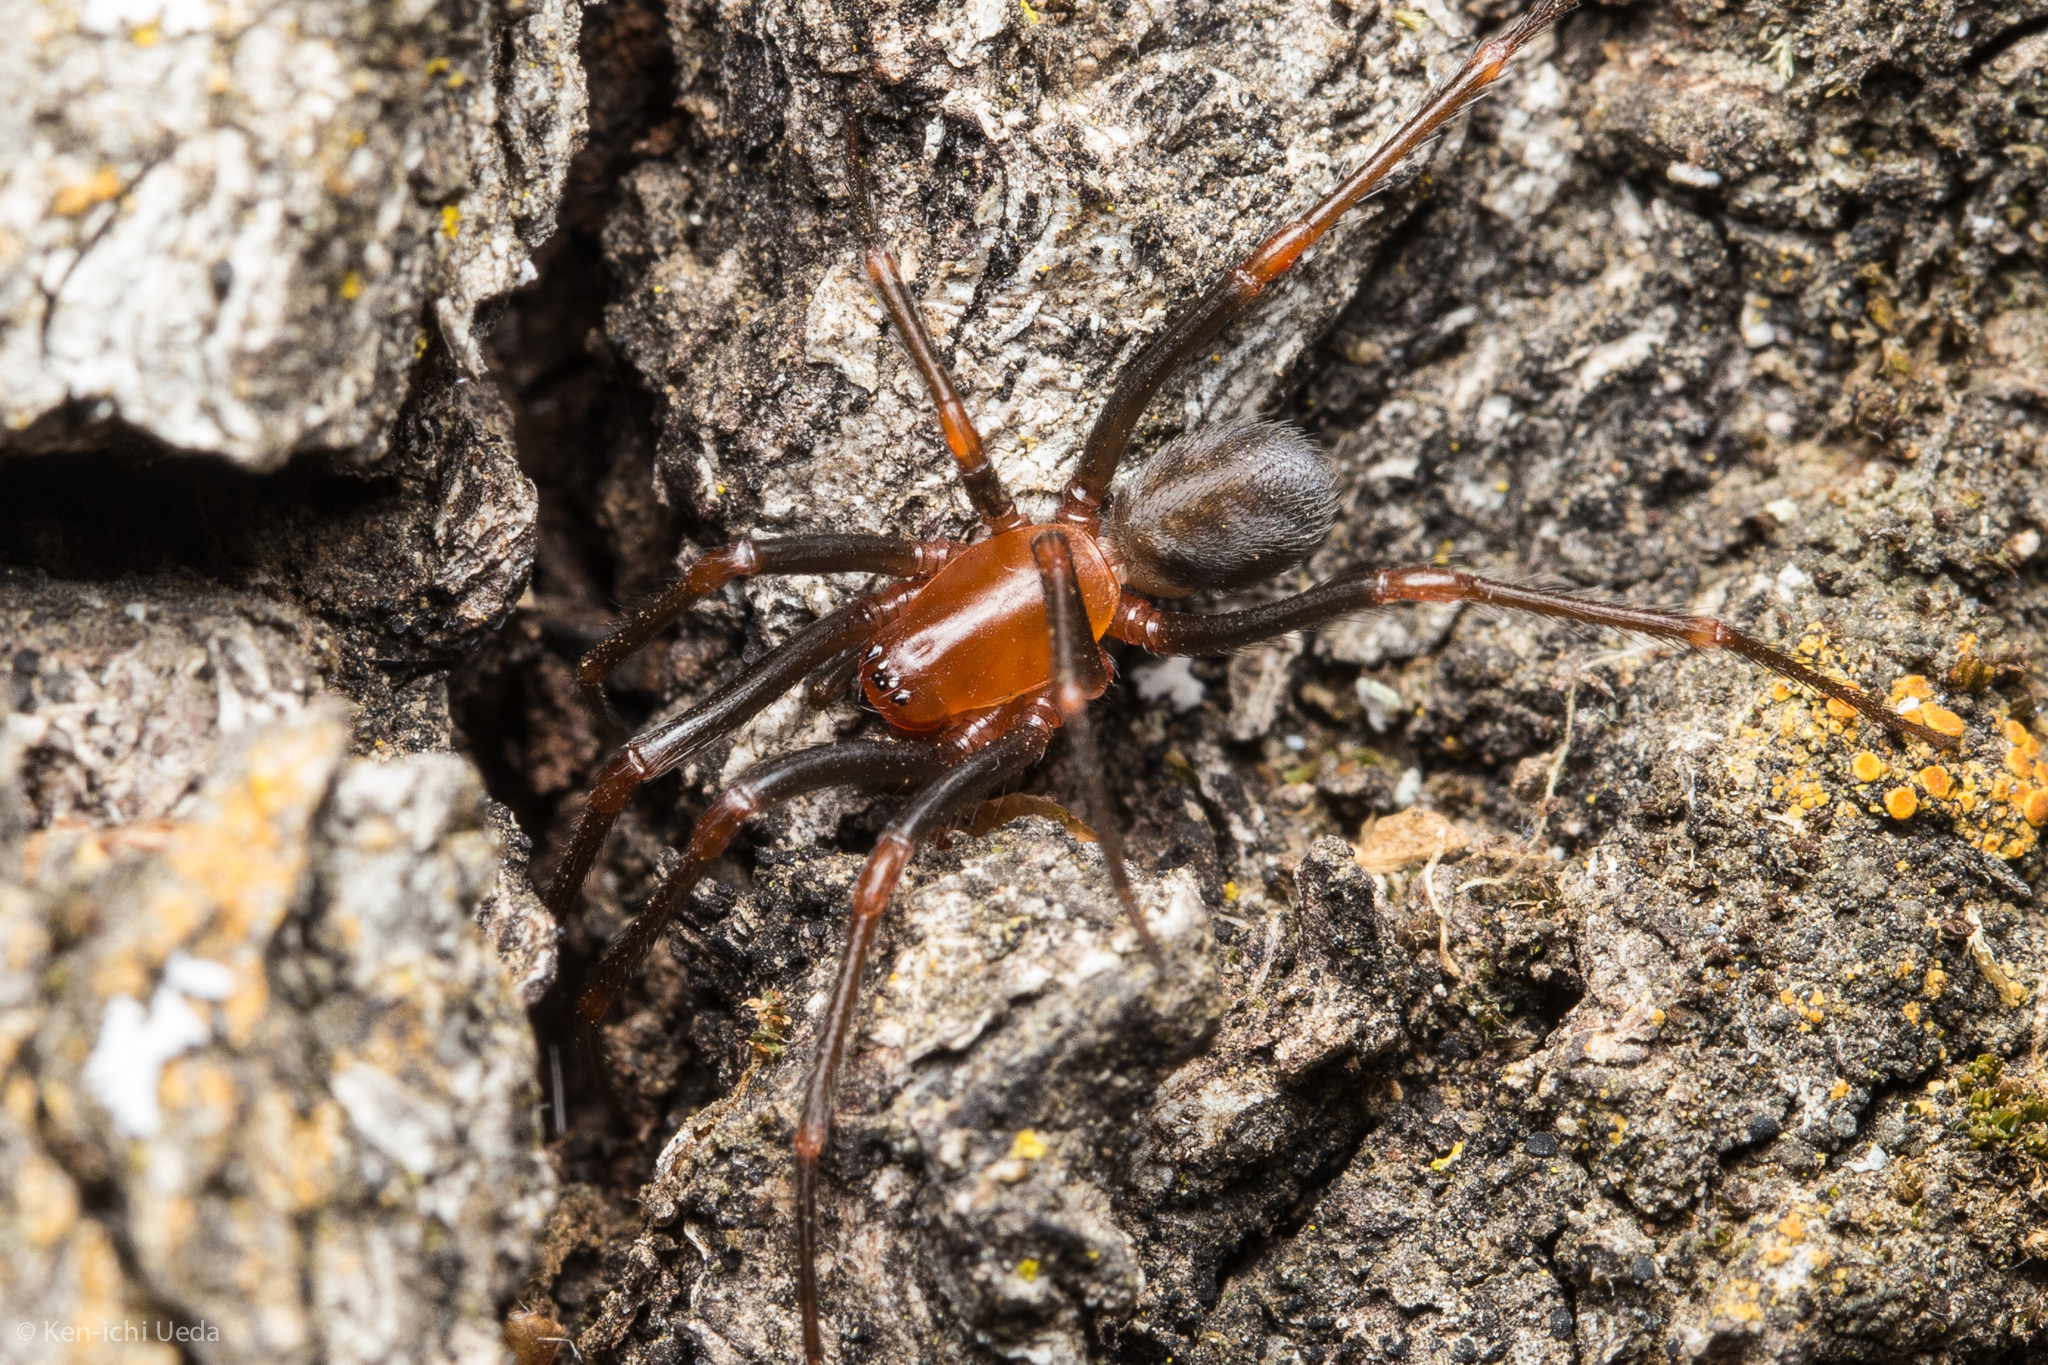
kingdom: Animalia
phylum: Arthropoda
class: Arachnida
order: Araneae
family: Plectreuridae
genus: Kibramoa
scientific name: Kibramoa madrona
